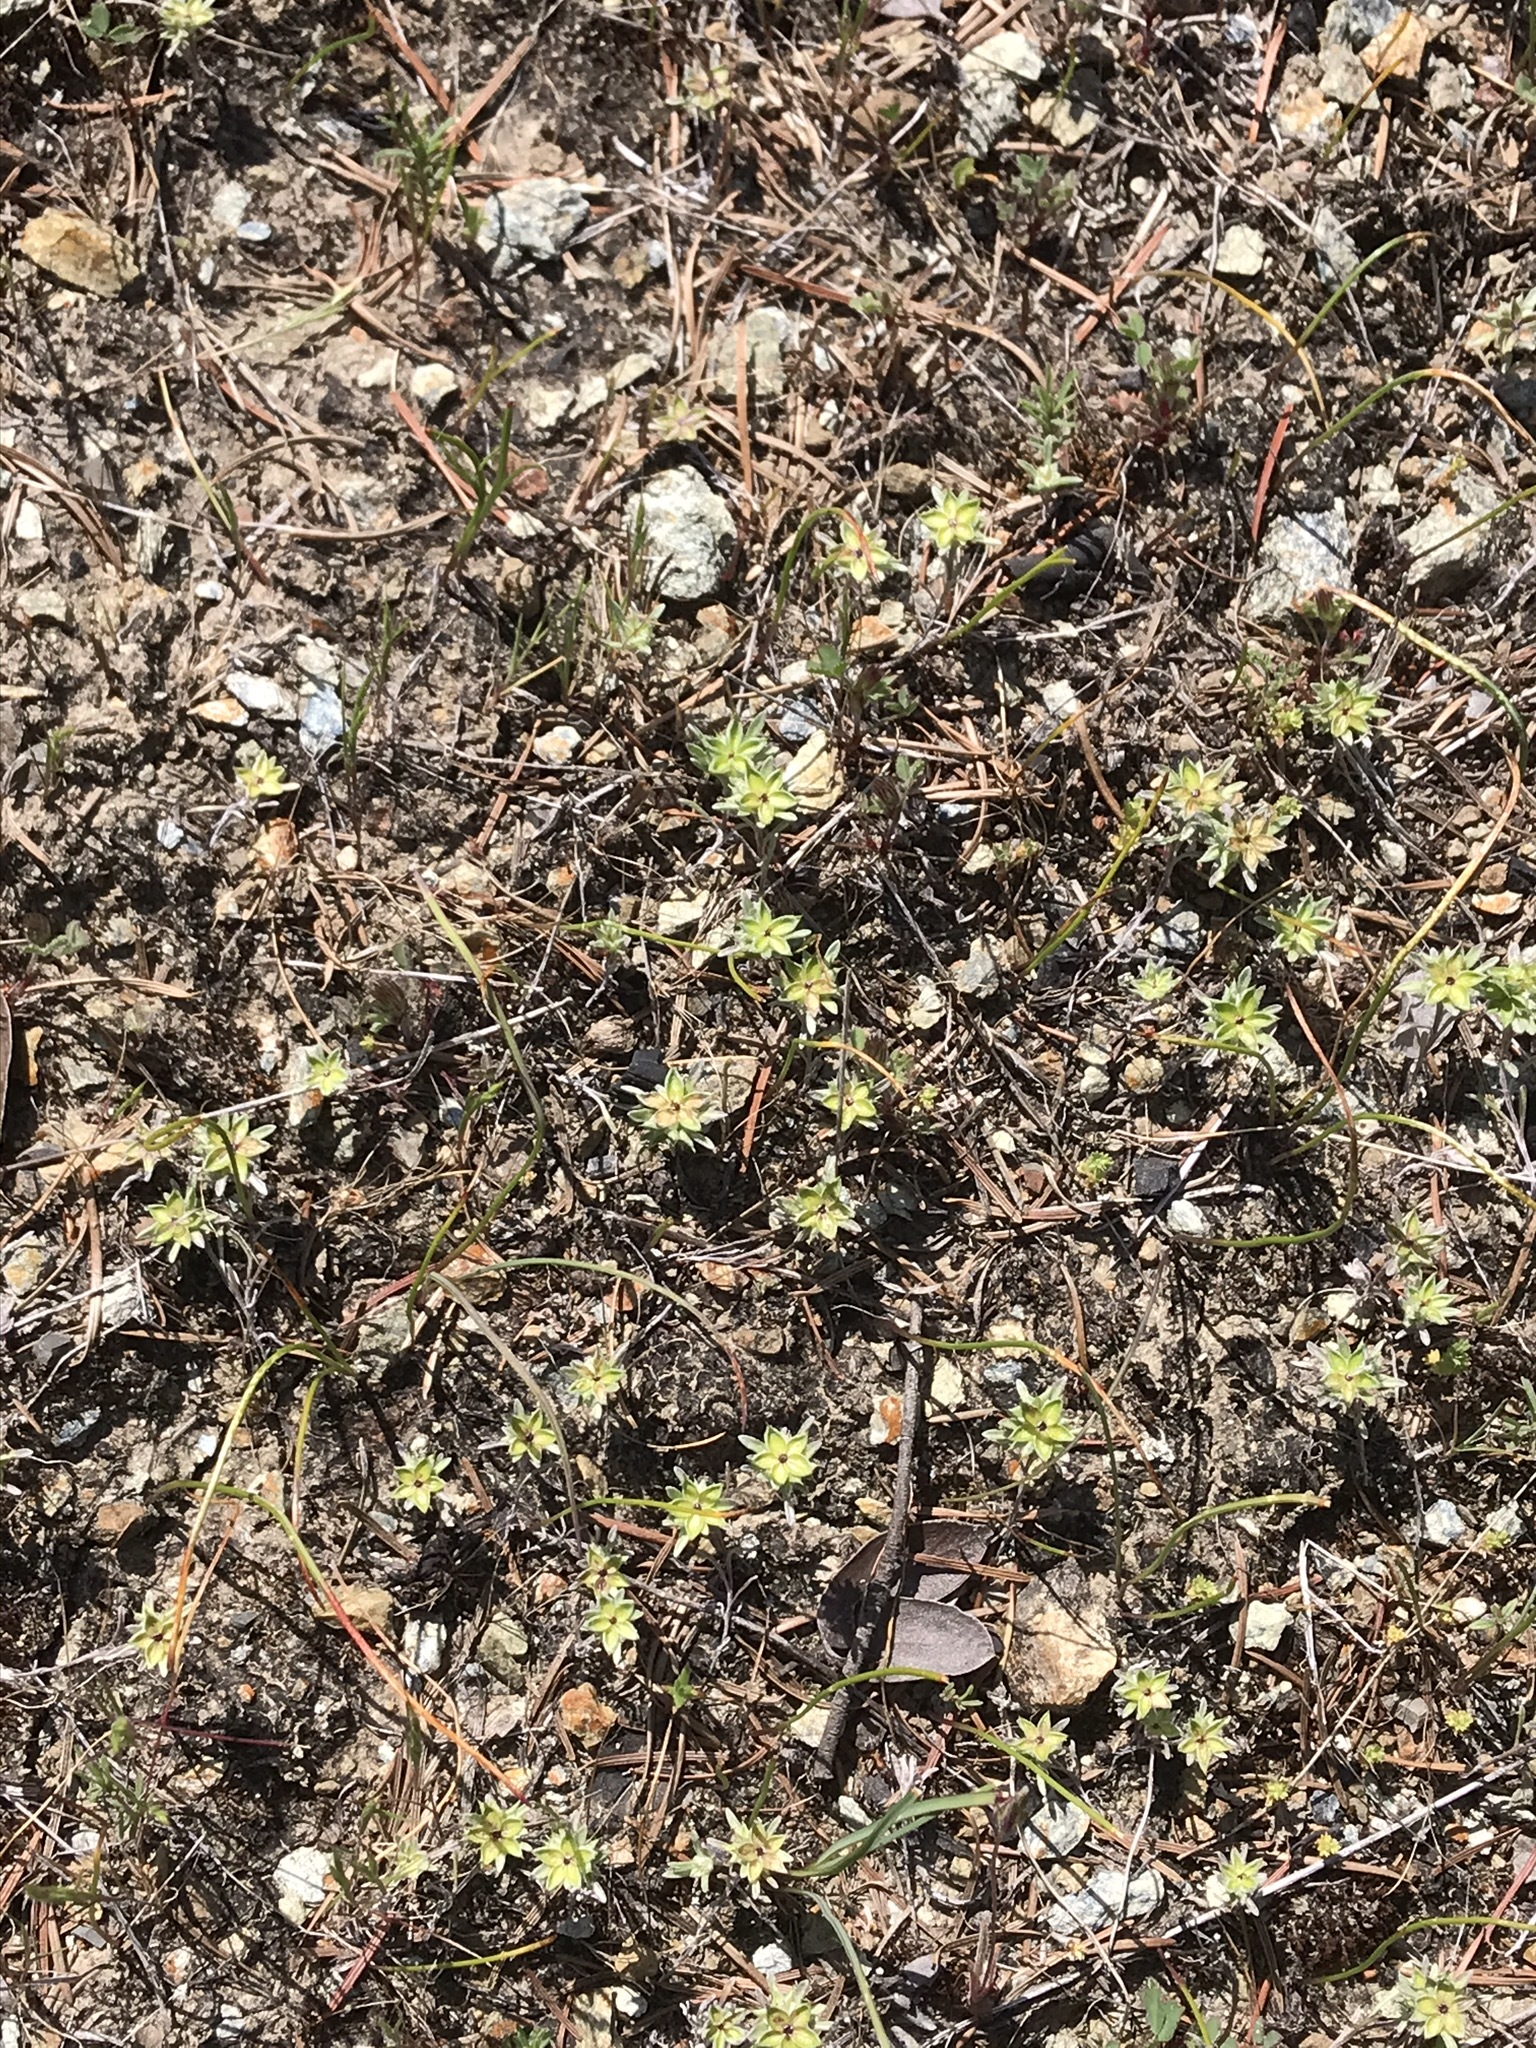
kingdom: Plantae
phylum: Tracheophyta
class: Magnoliopsida
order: Asterales
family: Asteraceae
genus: Ancistrocarphus
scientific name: Ancistrocarphus filagineus
